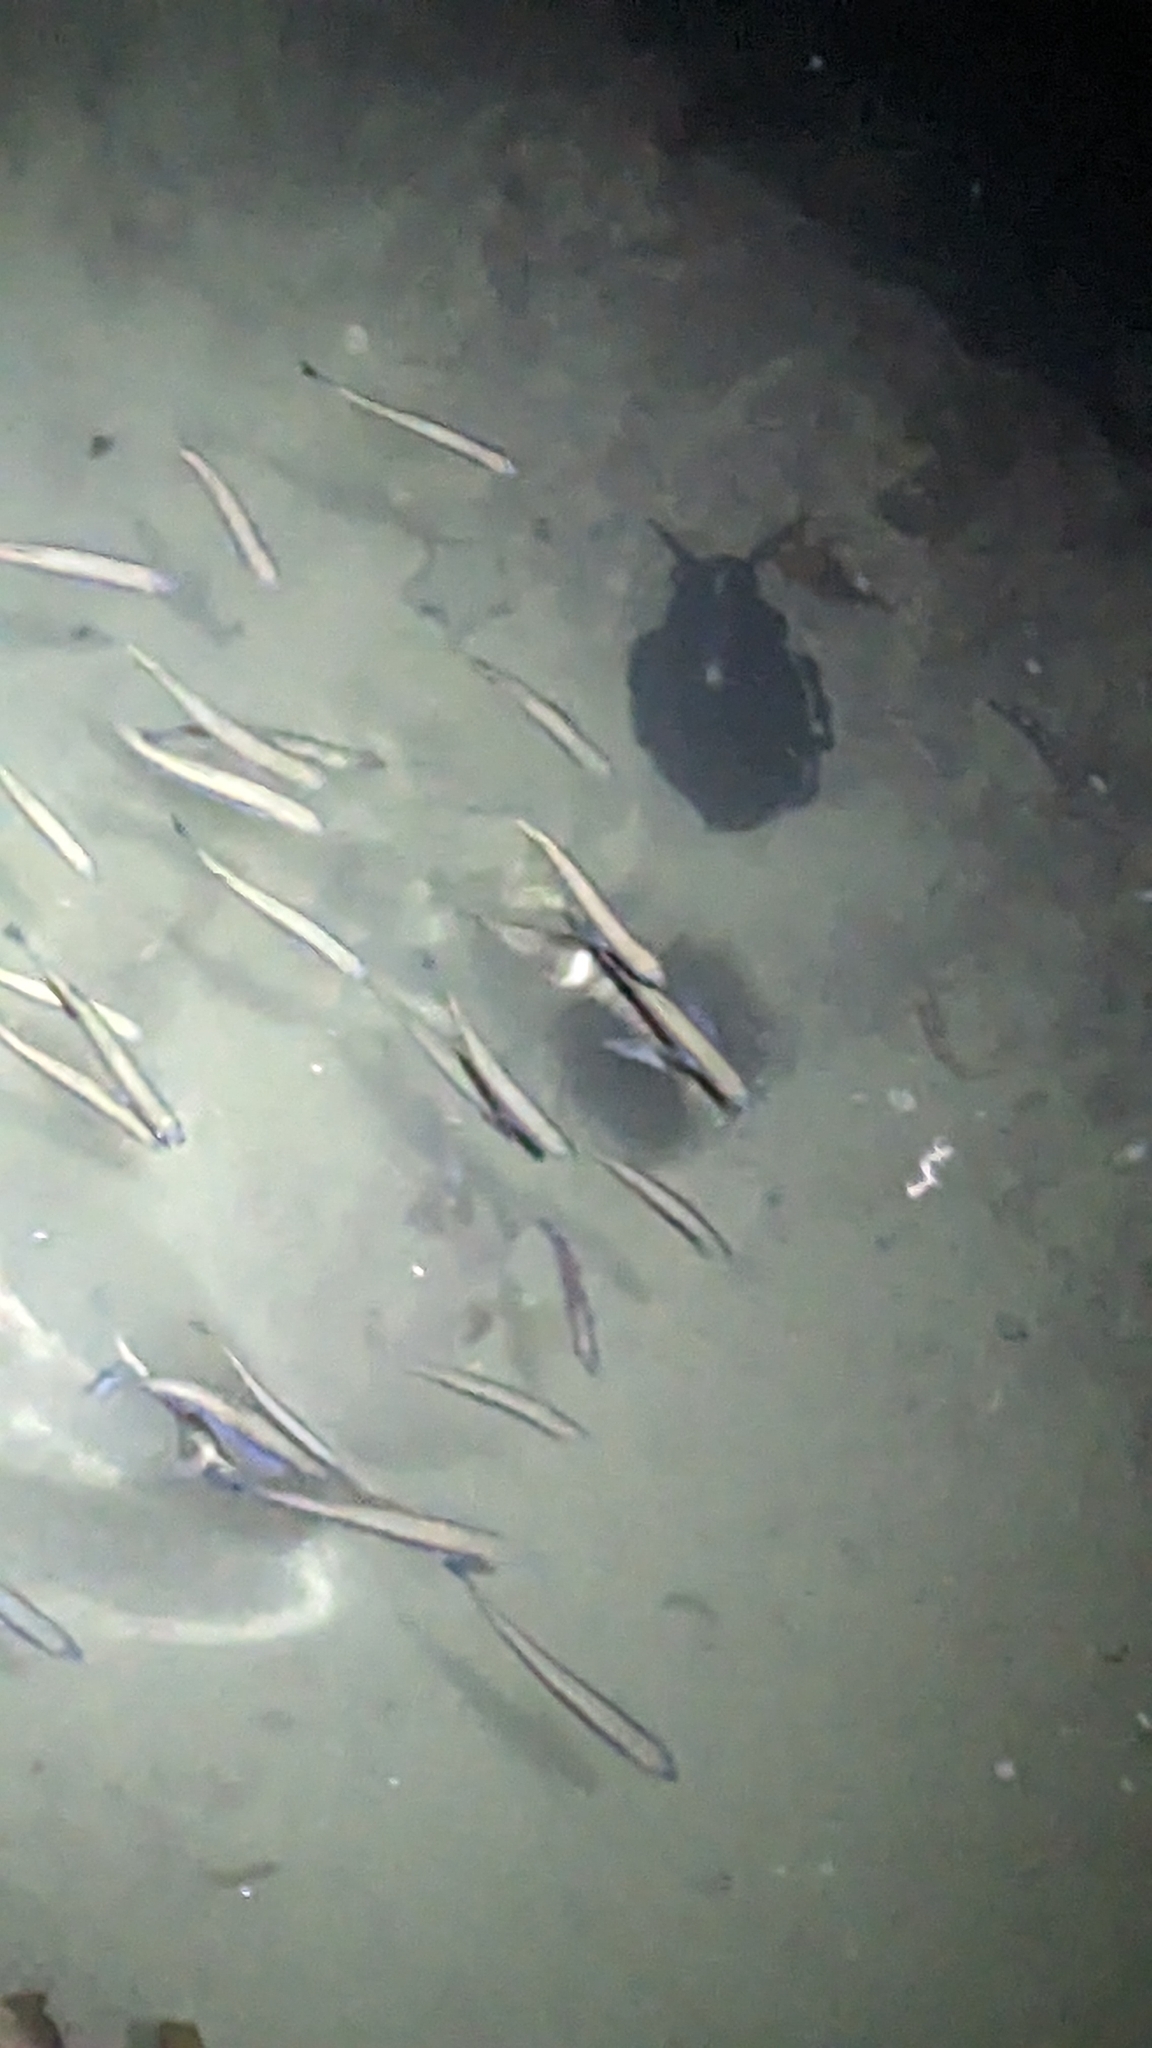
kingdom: Animalia
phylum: Chordata
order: Mugiliformes
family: Mugilidae
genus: Aldrichetta
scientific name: Aldrichetta forsteri
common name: Yellow-eye mullet
